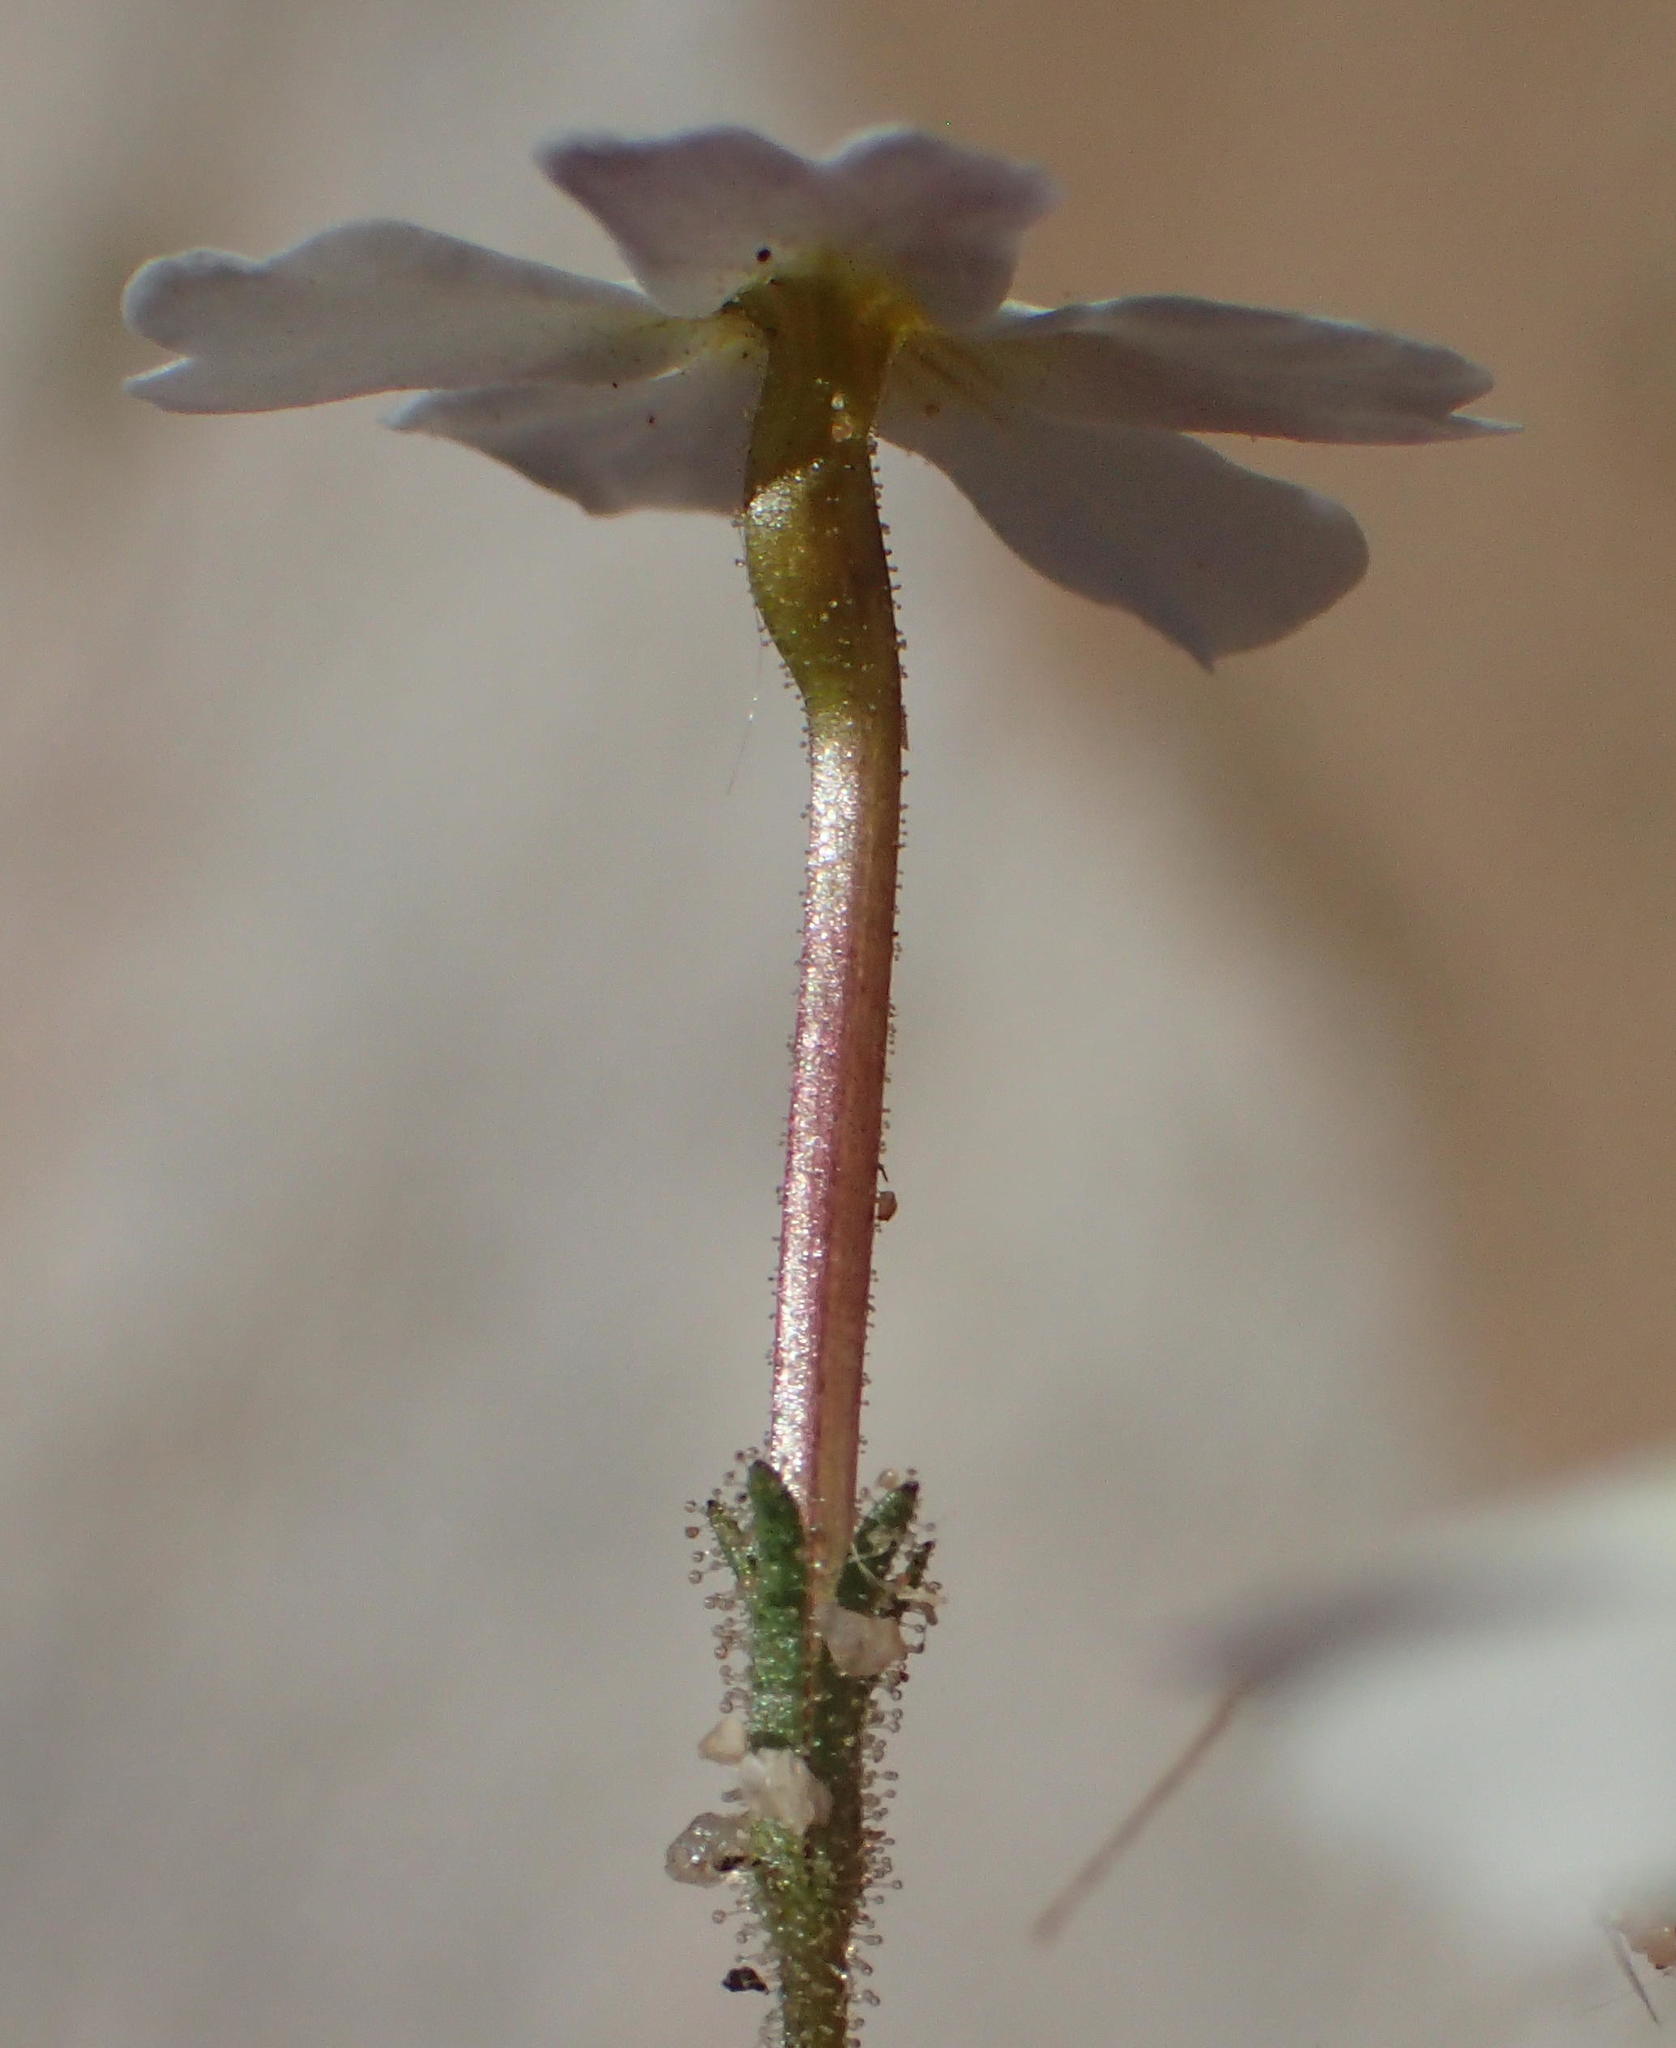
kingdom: Plantae
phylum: Tracheophyta
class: Magnoliopsida
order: Lamiales
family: Scrophulariaceae
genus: Jamesbrittenia
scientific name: Jamesbrittenia megadenia
